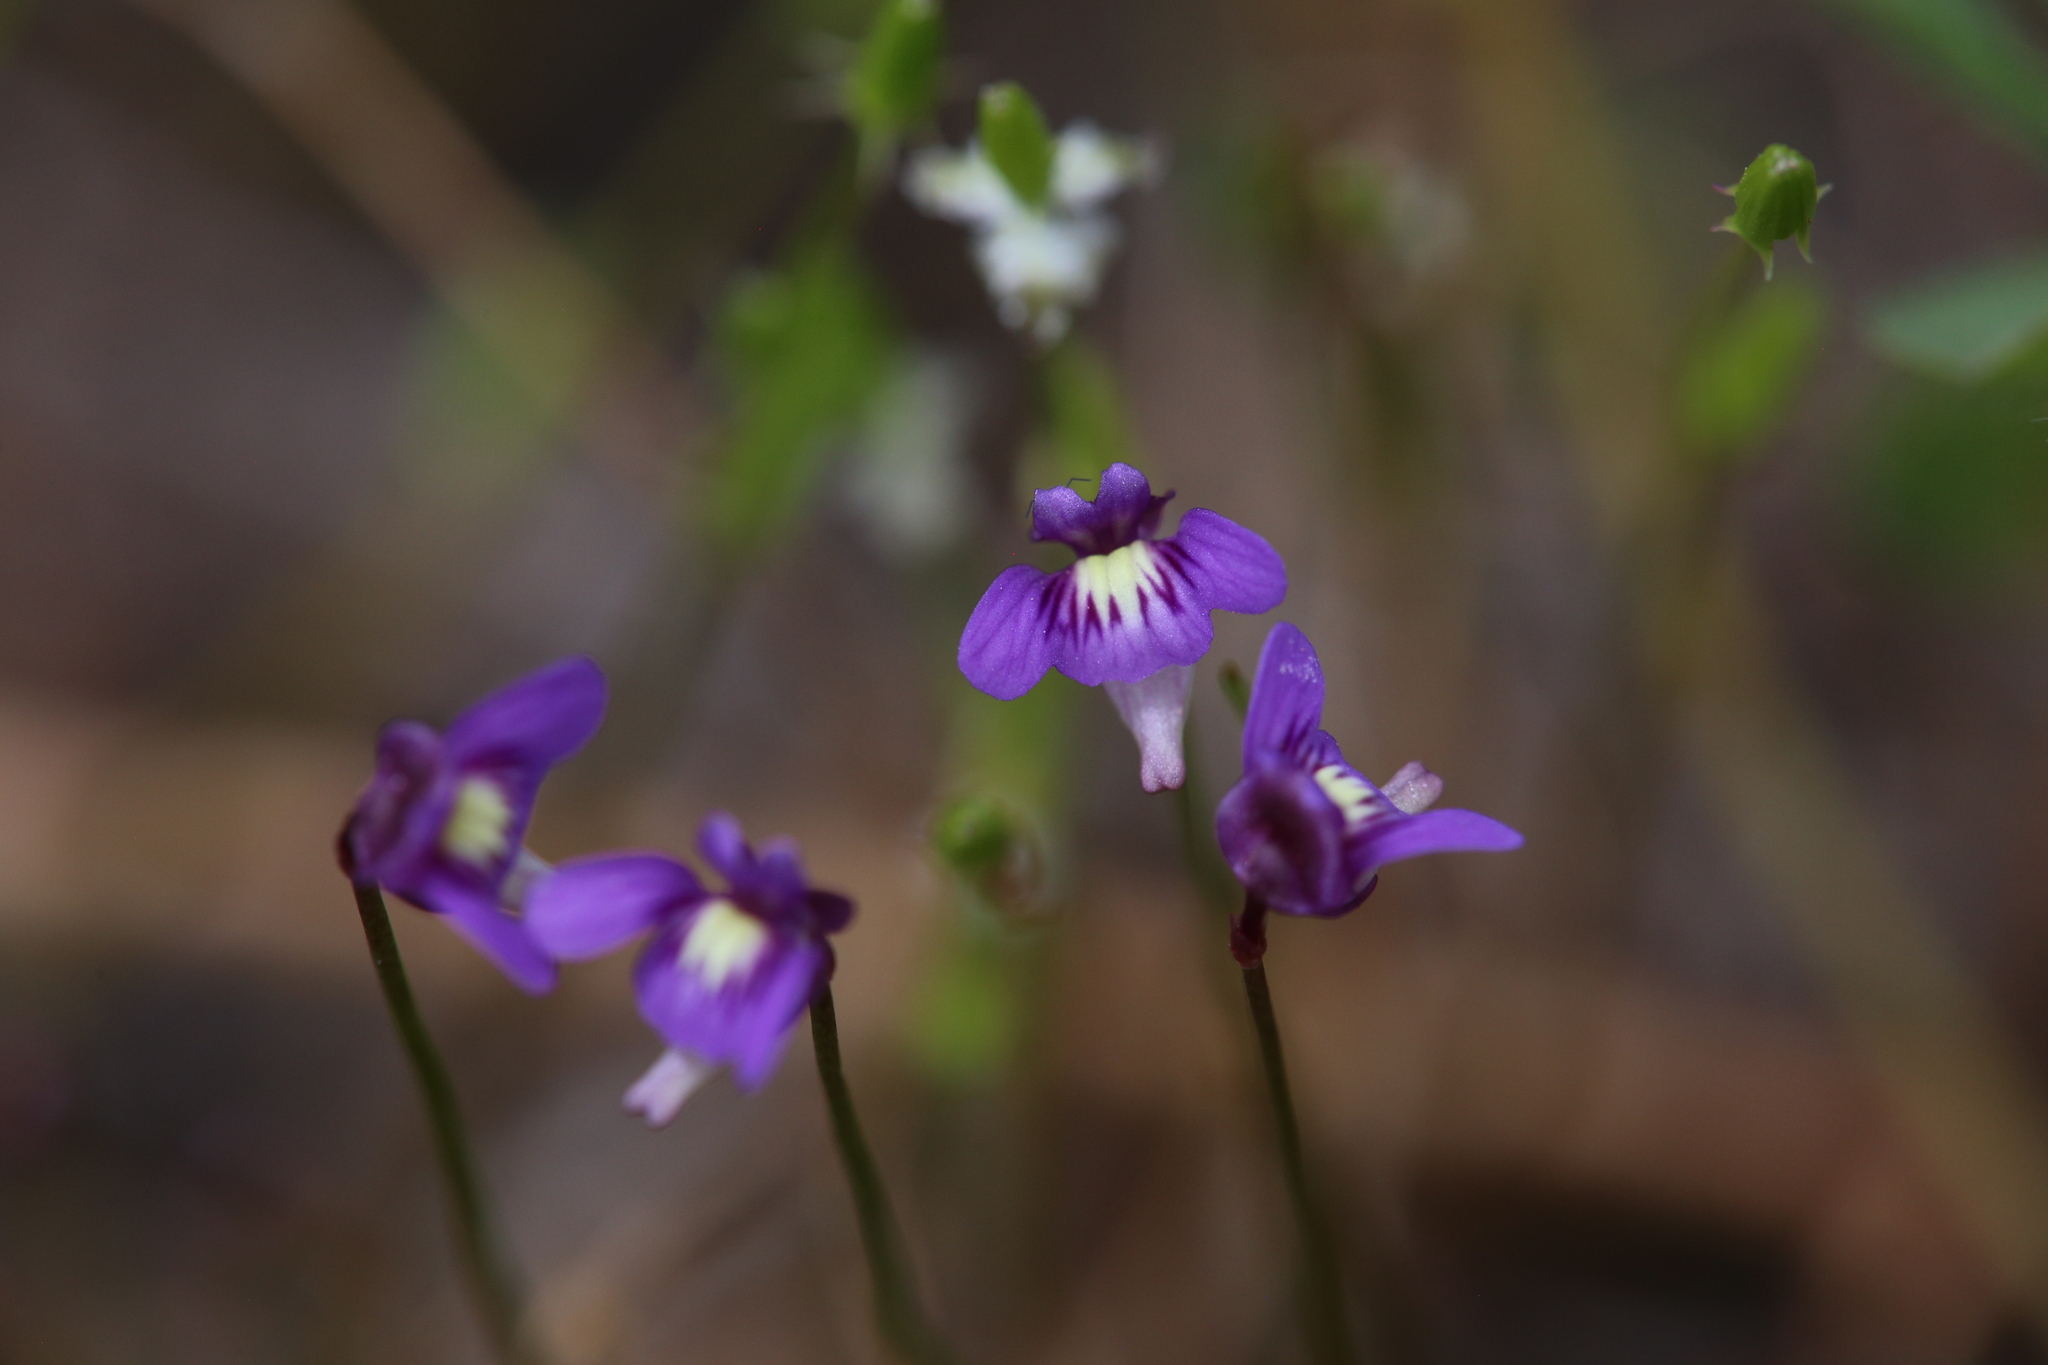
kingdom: Plantae
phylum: Tracheophyta
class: Magnoliopsida
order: Lamiales
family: Lentibulariaceae
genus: Utricularia
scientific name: Utricularia violacea
